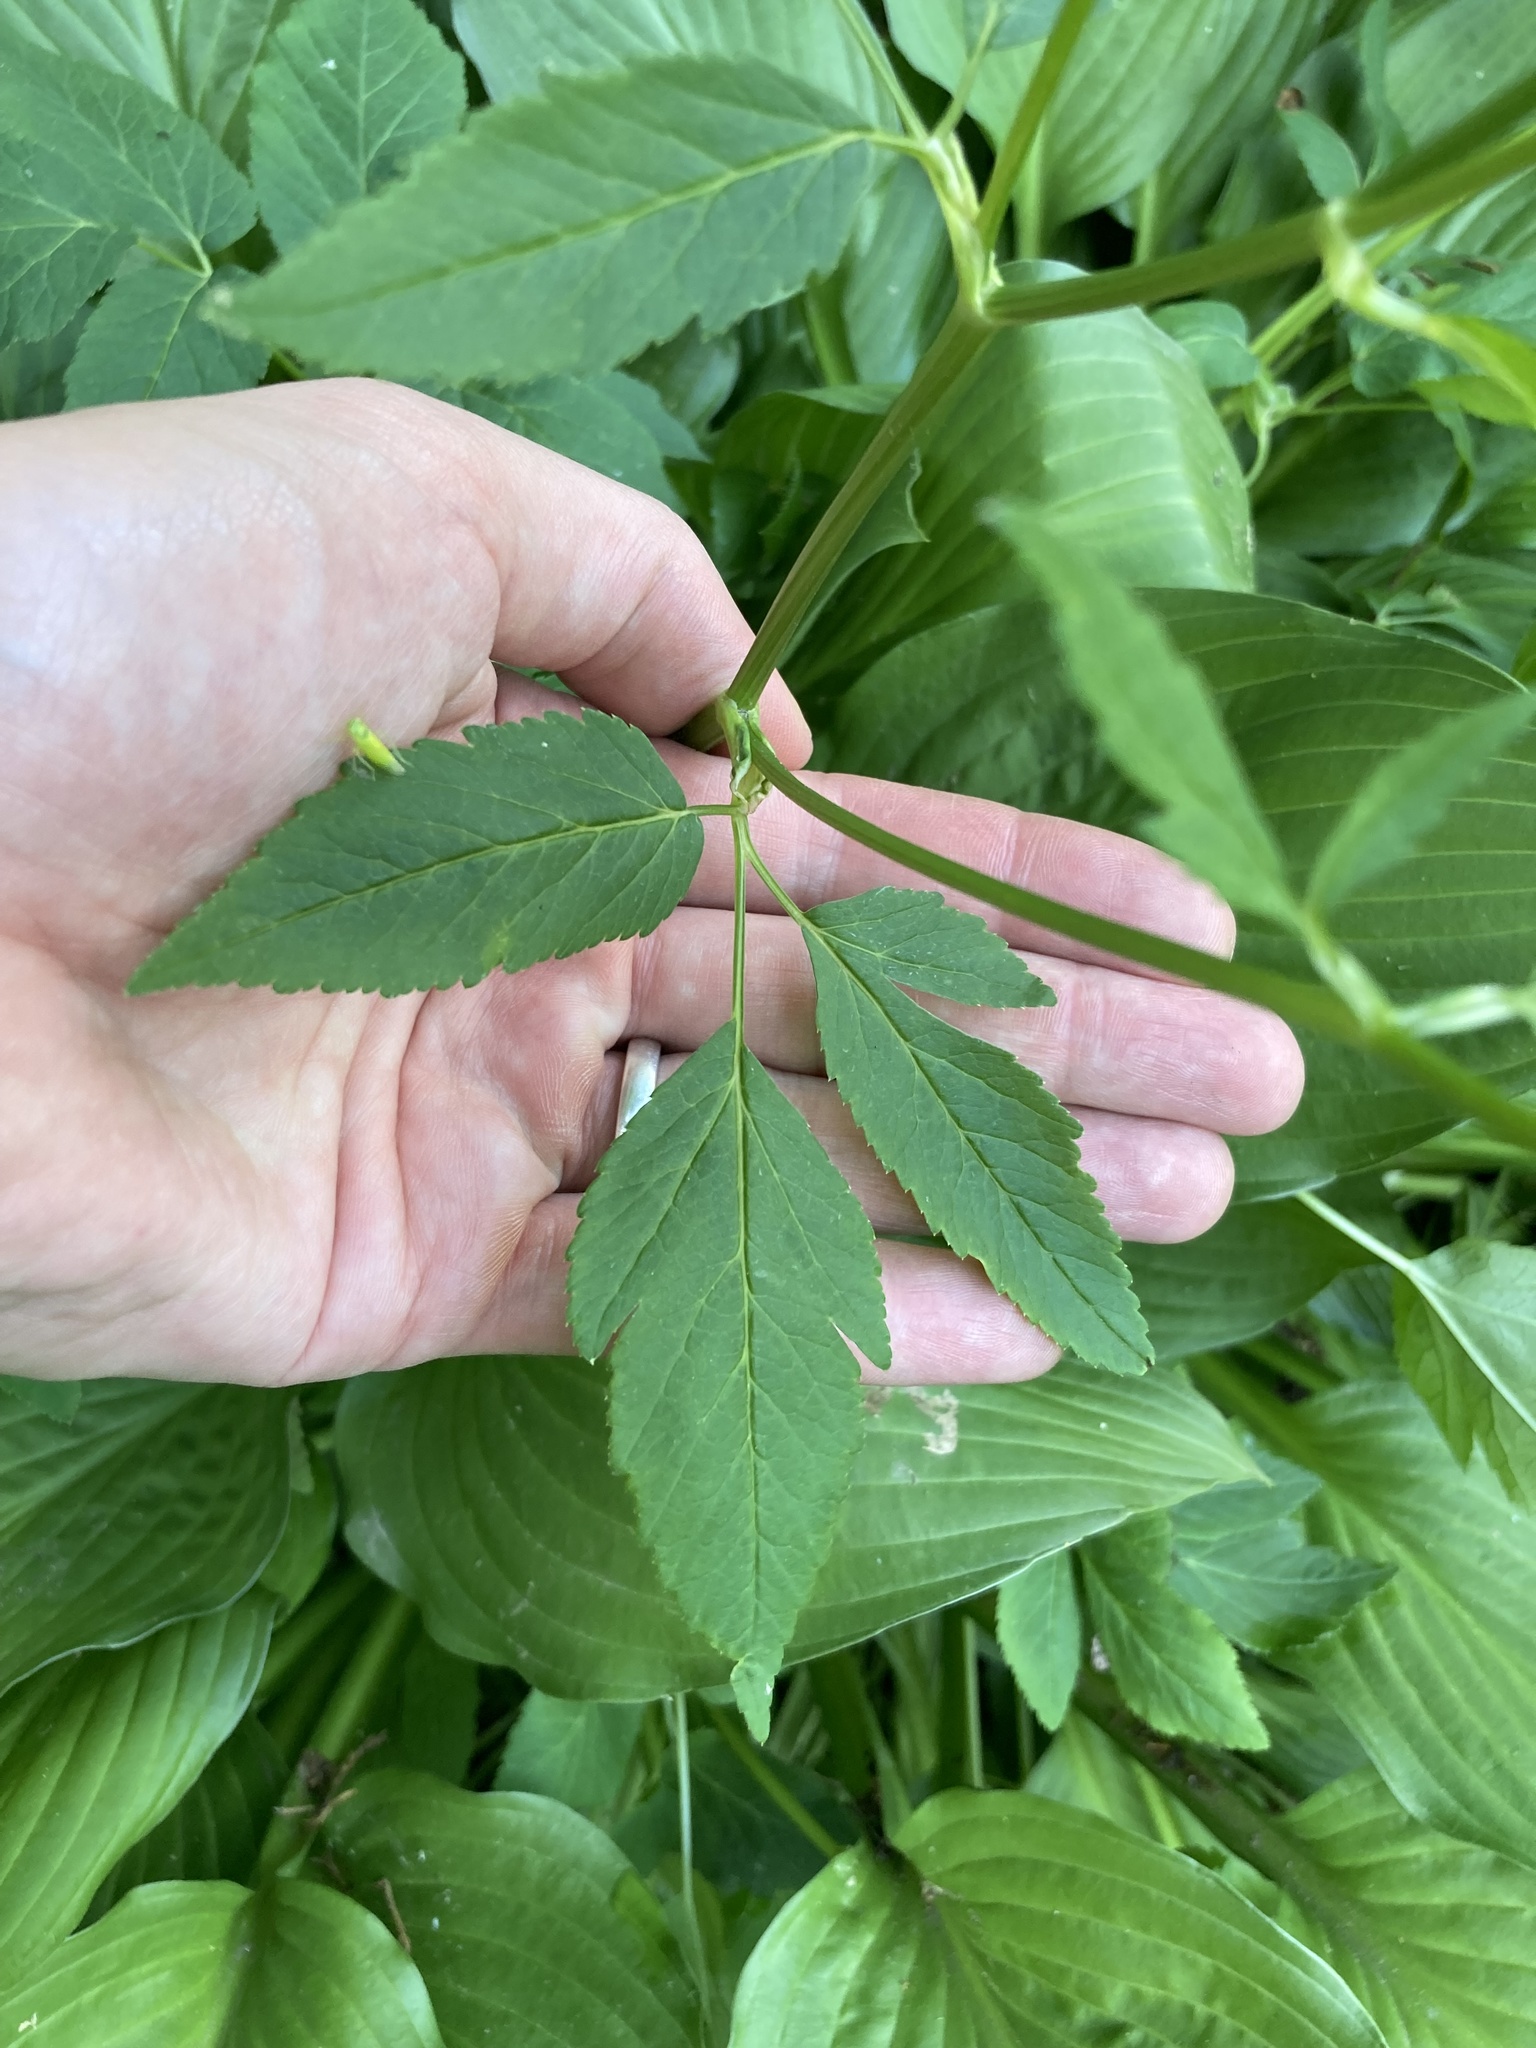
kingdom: Plantae
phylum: Tracheophyta
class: Magnoliopsida
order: Apiales
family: Apiaceae
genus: Aegopodium
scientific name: Aegopodium podagraria
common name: Ground-elder
